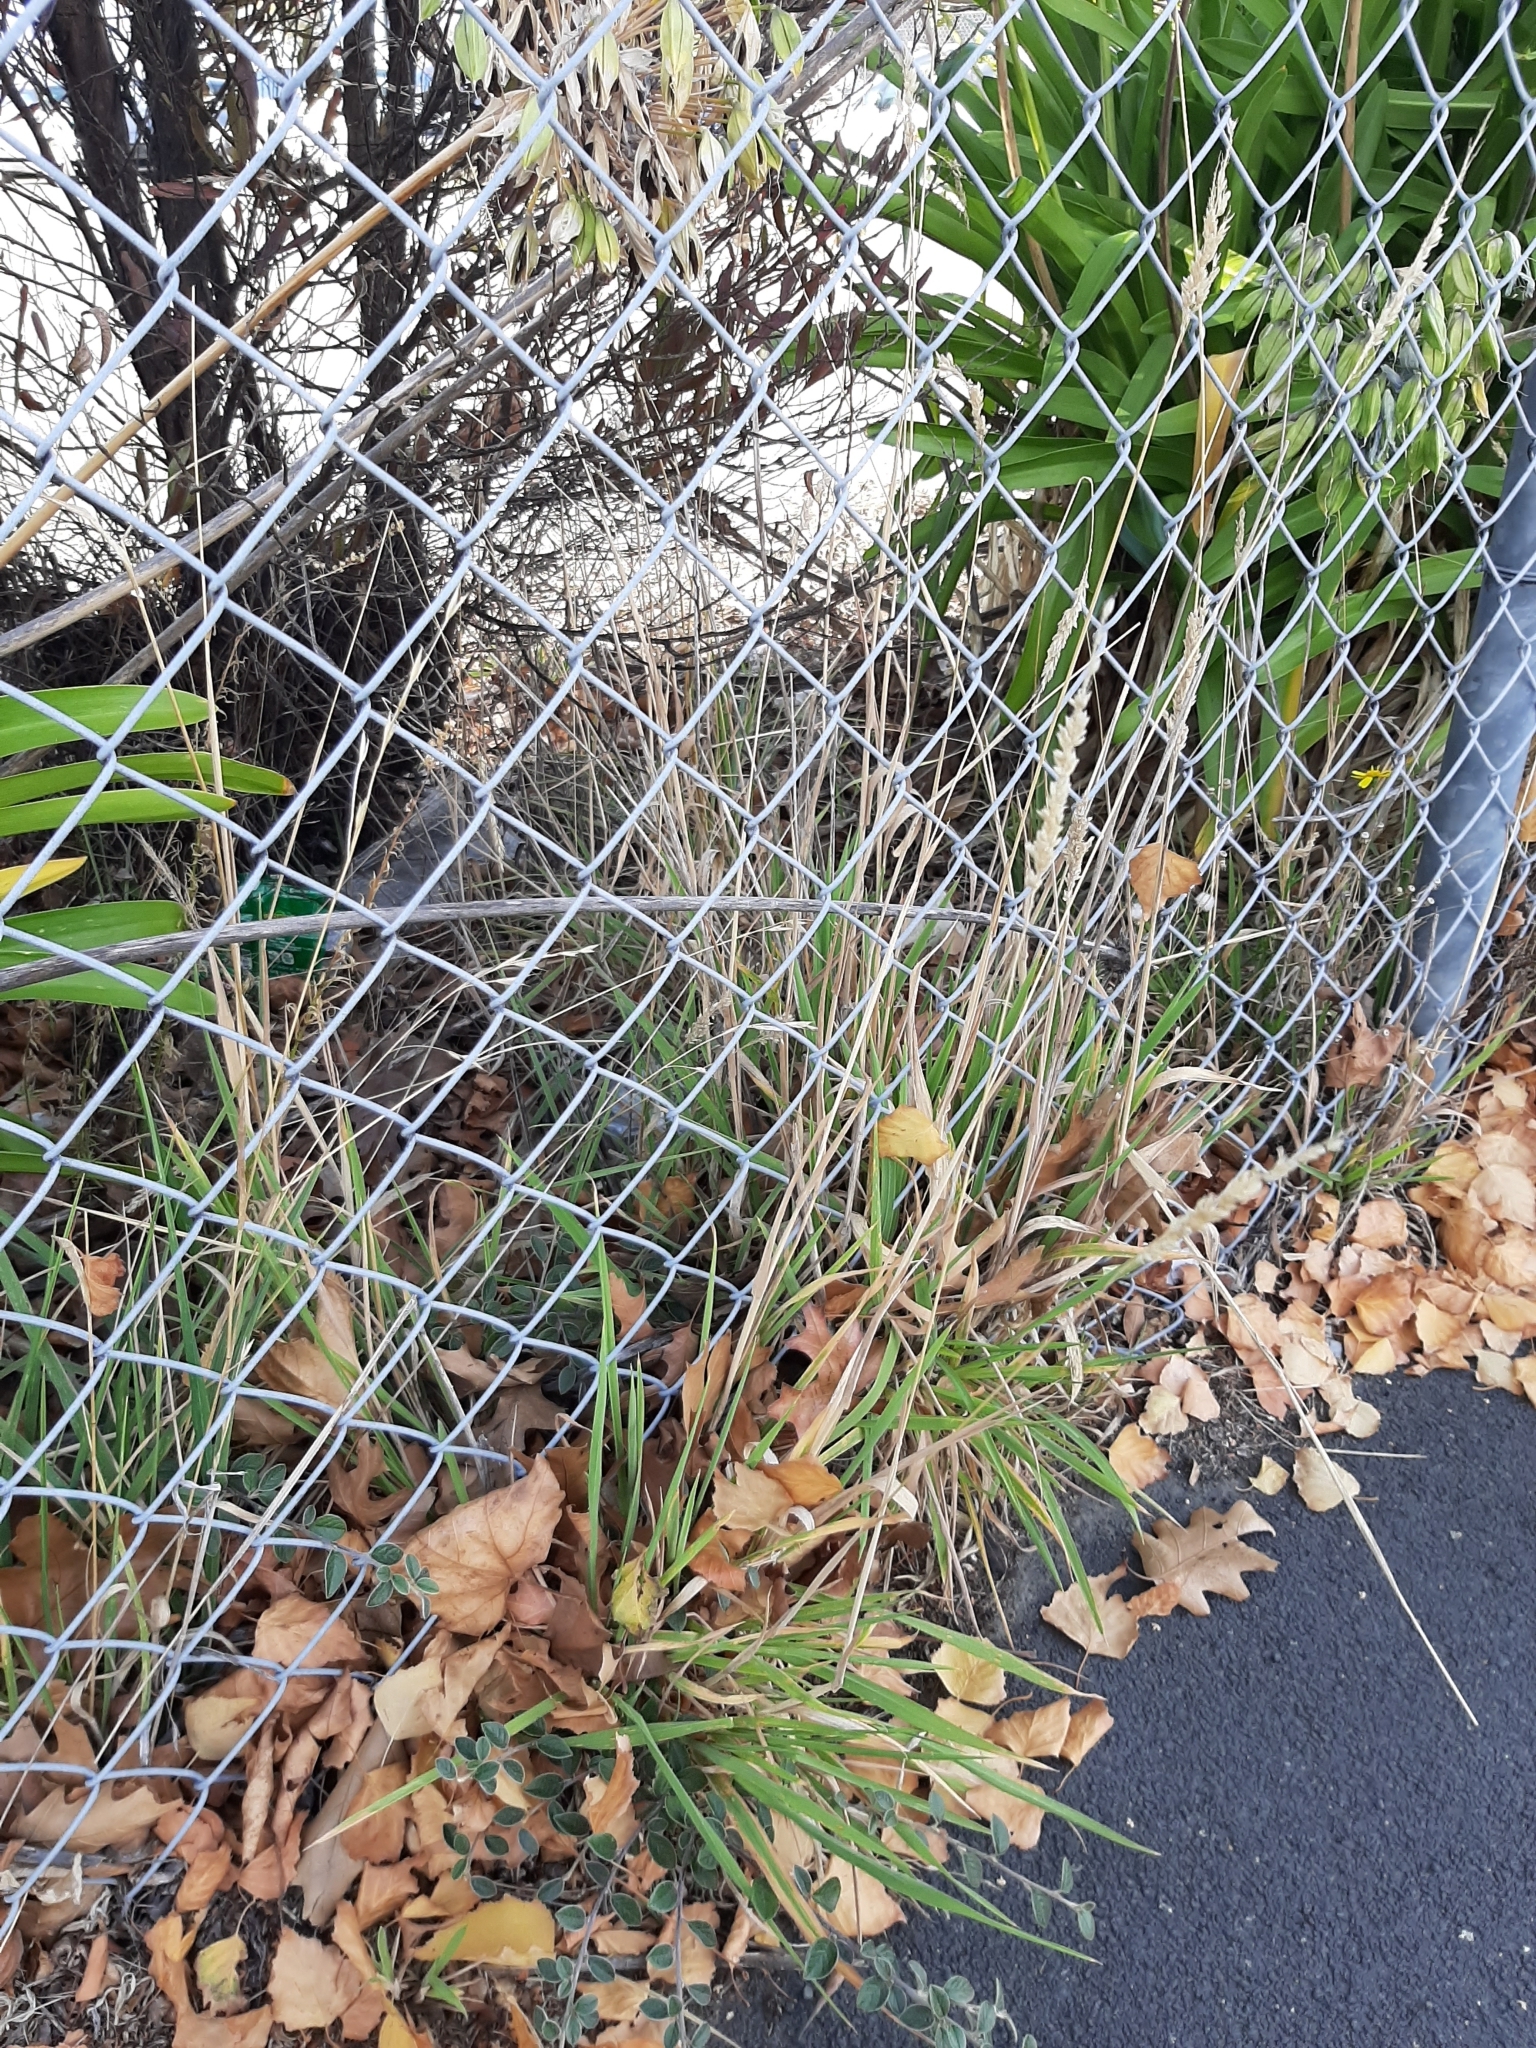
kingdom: Plantae
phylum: Tracheophyta
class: Liliopsida
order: Poales
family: Poaceae
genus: Holcus
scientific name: Holcus lanatus
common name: Yorkshire-fog
